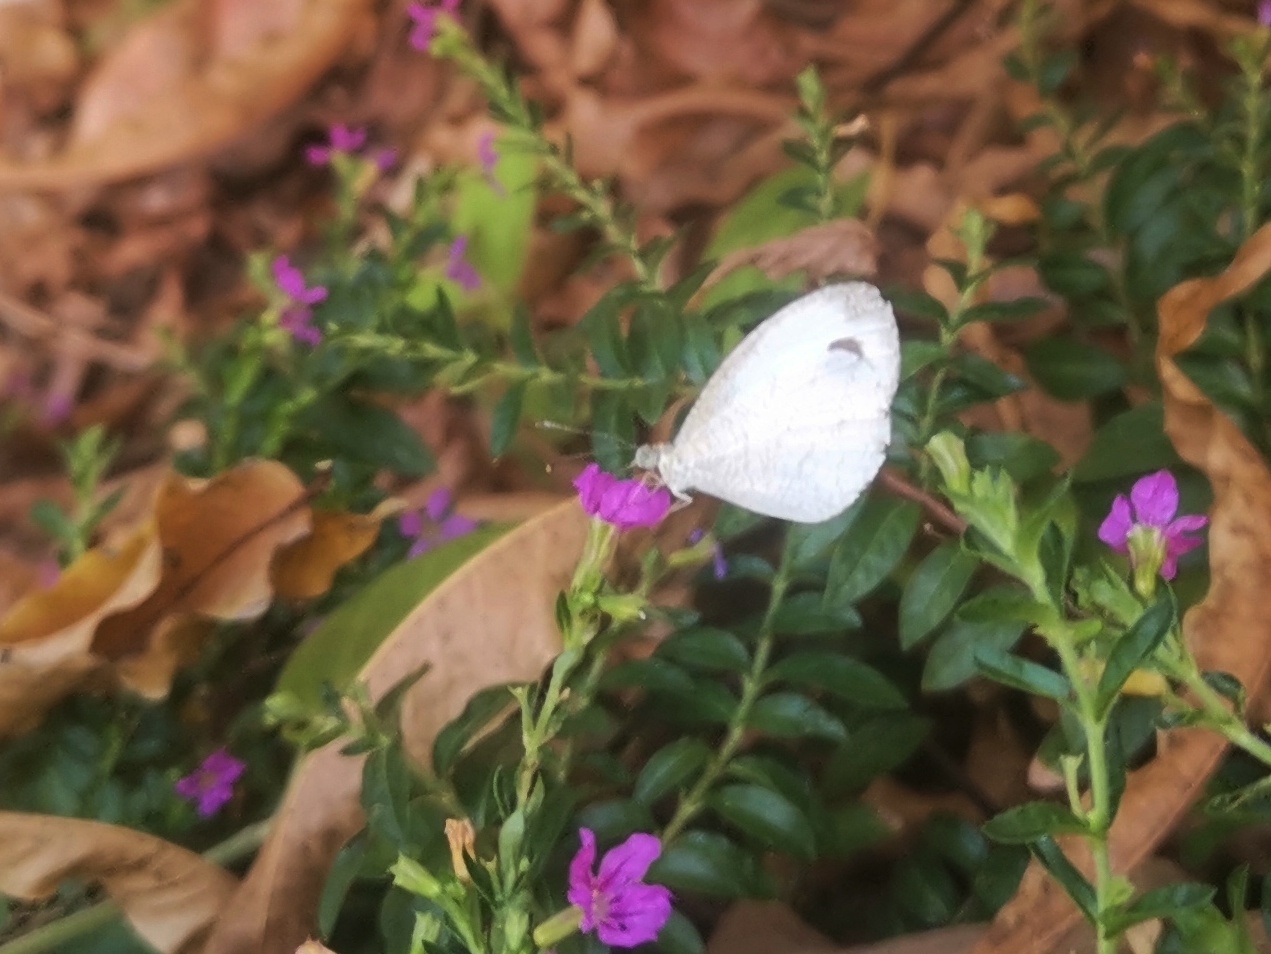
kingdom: Animalia
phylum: Arthropoda
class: Insecta
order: Lepidoptera
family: Pieridae
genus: Leptosia
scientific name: Leptosia nina
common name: Psyche
